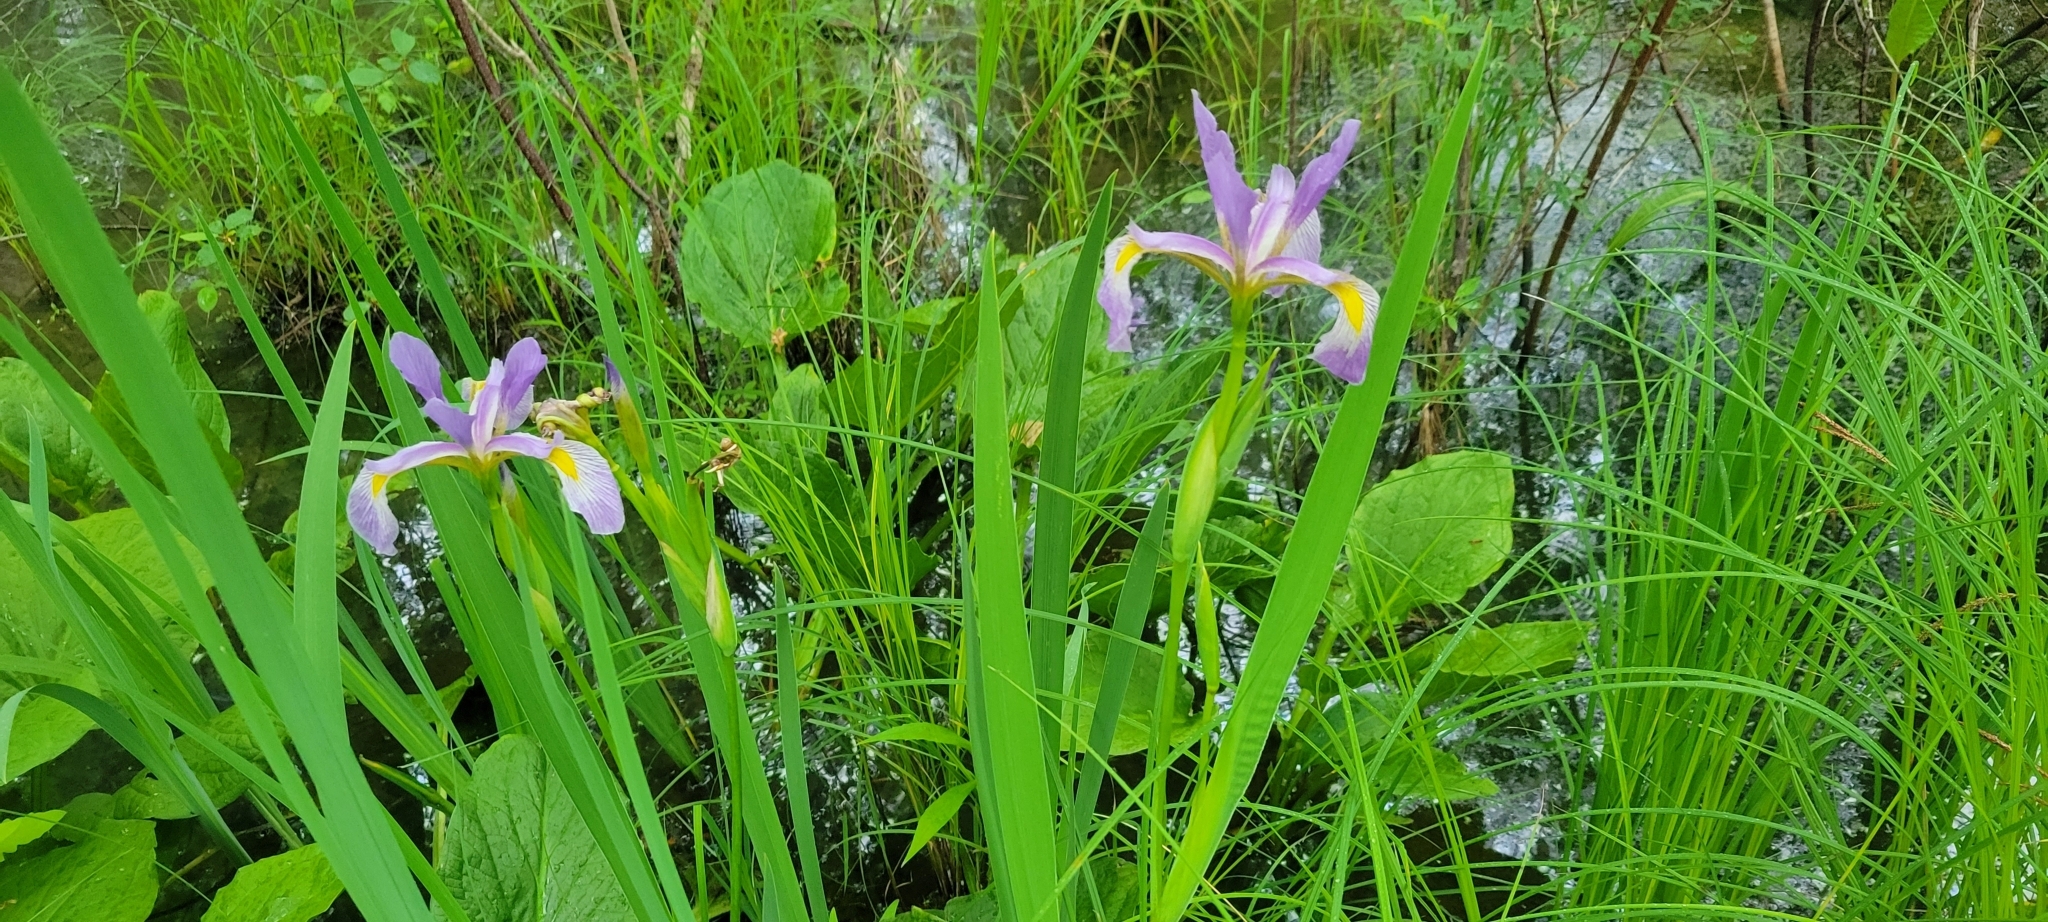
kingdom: Plantae
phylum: Tracheophyta
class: Liliopsida
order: Asparagales
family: Iridaceae
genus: Iris
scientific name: Iris virginica
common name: Southern blue flag
